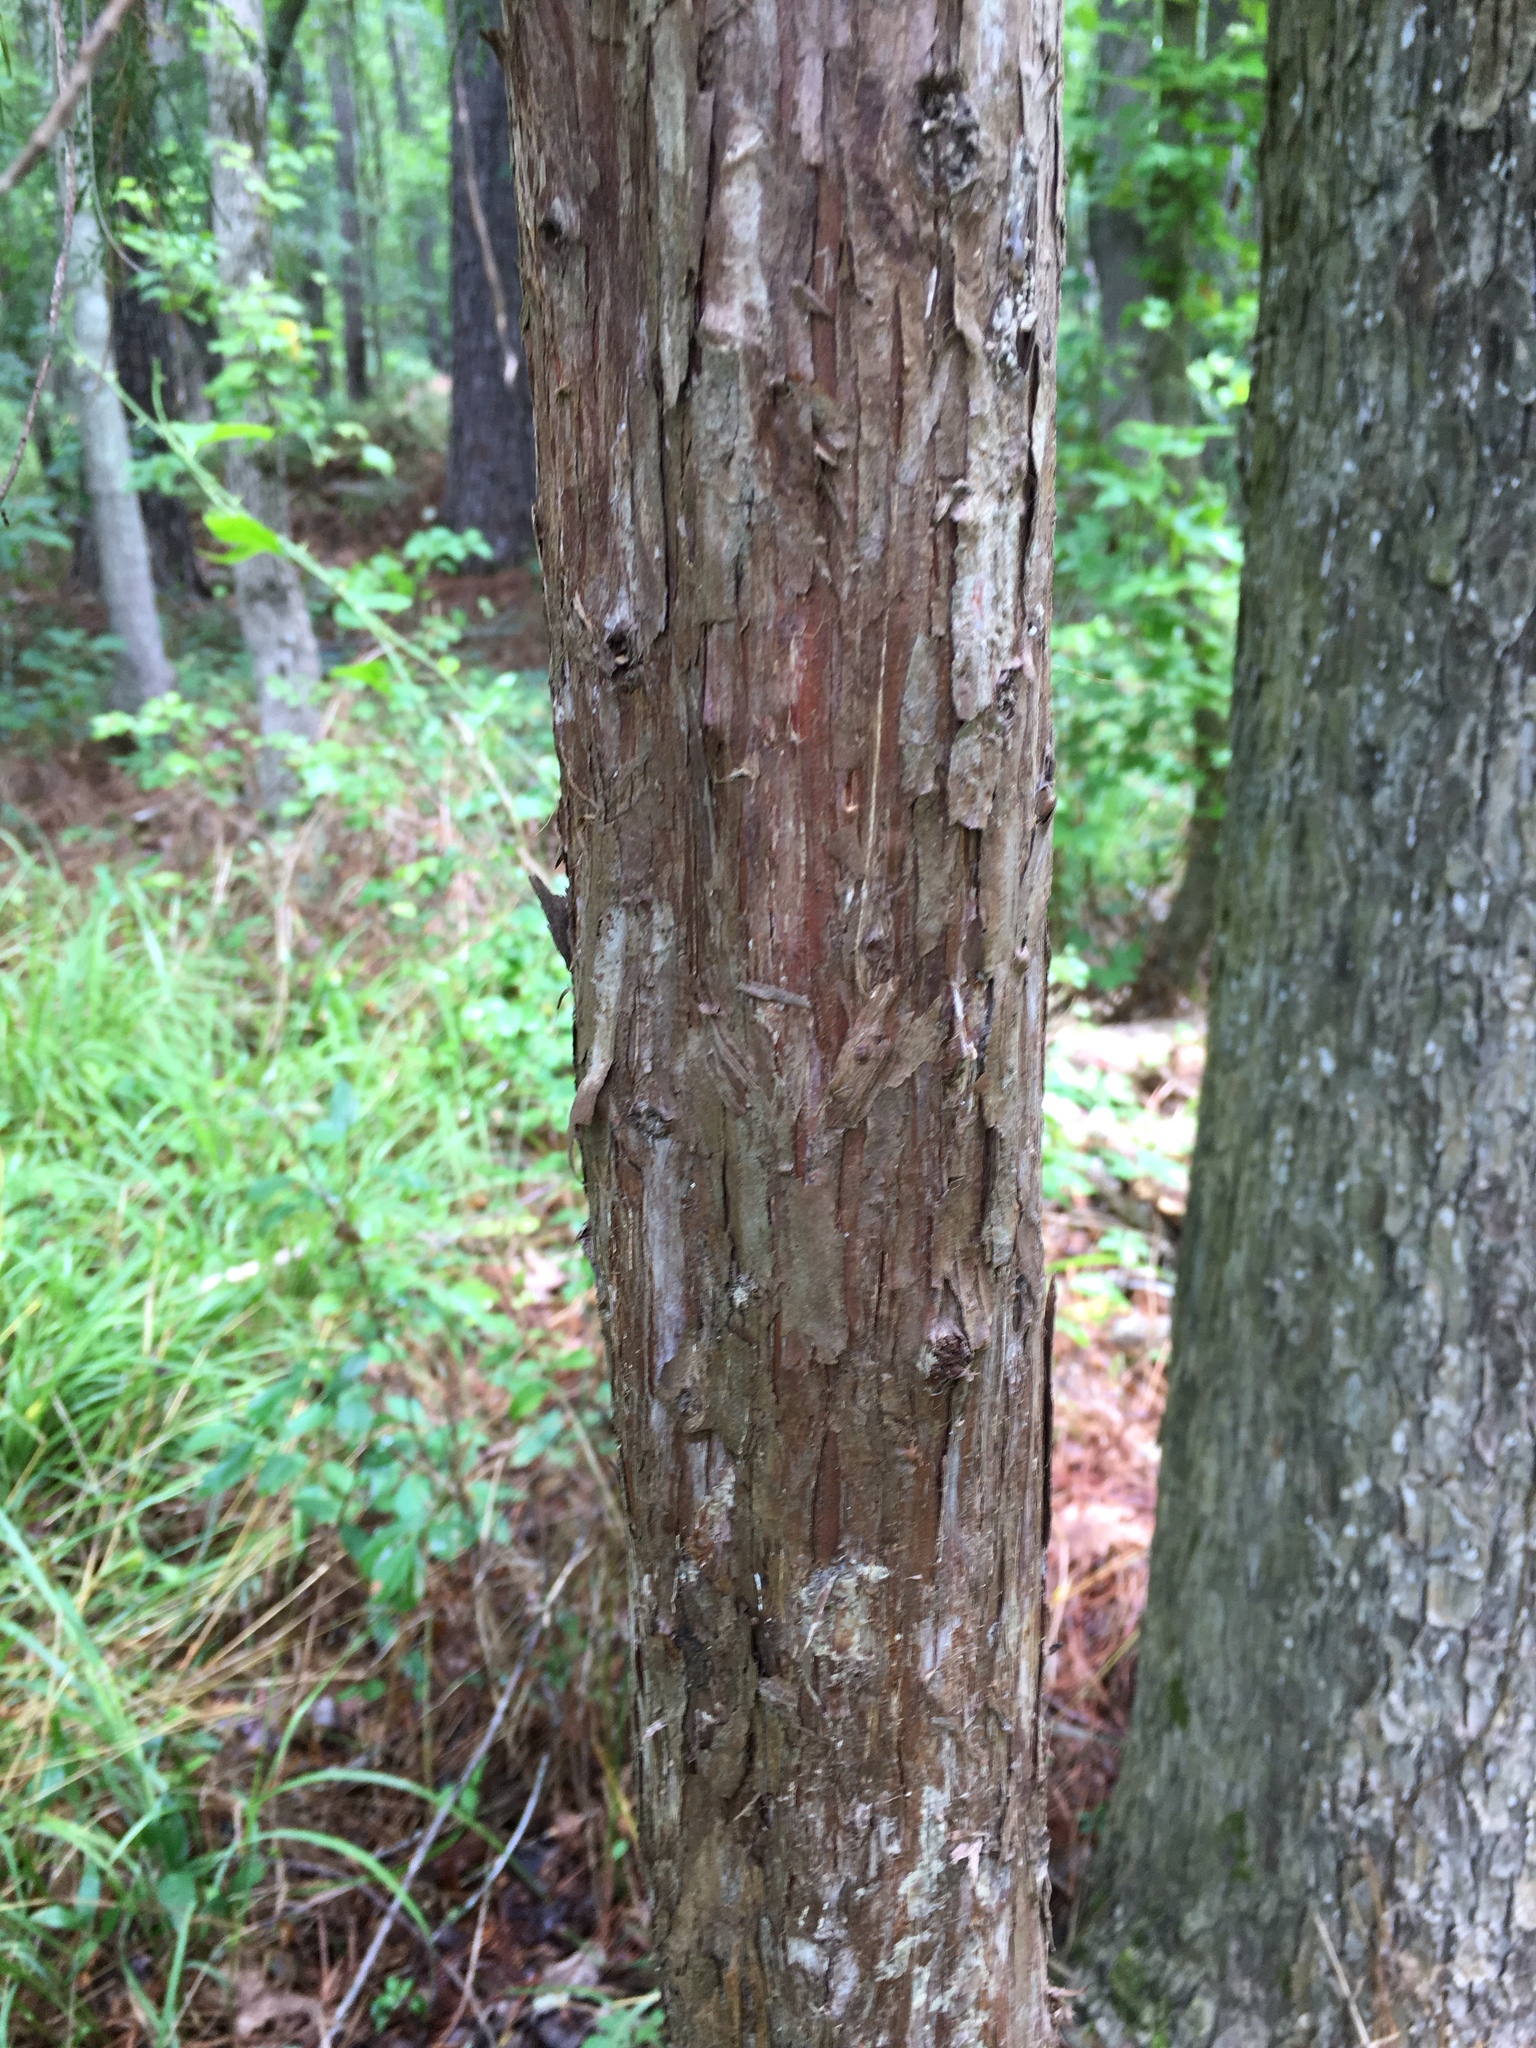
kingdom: Plantae
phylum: Tracheophyta
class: Pinopsida
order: Pinales
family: Cupressaceae
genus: Juniperus
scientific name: Juniperus virginiana
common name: Red juniper
